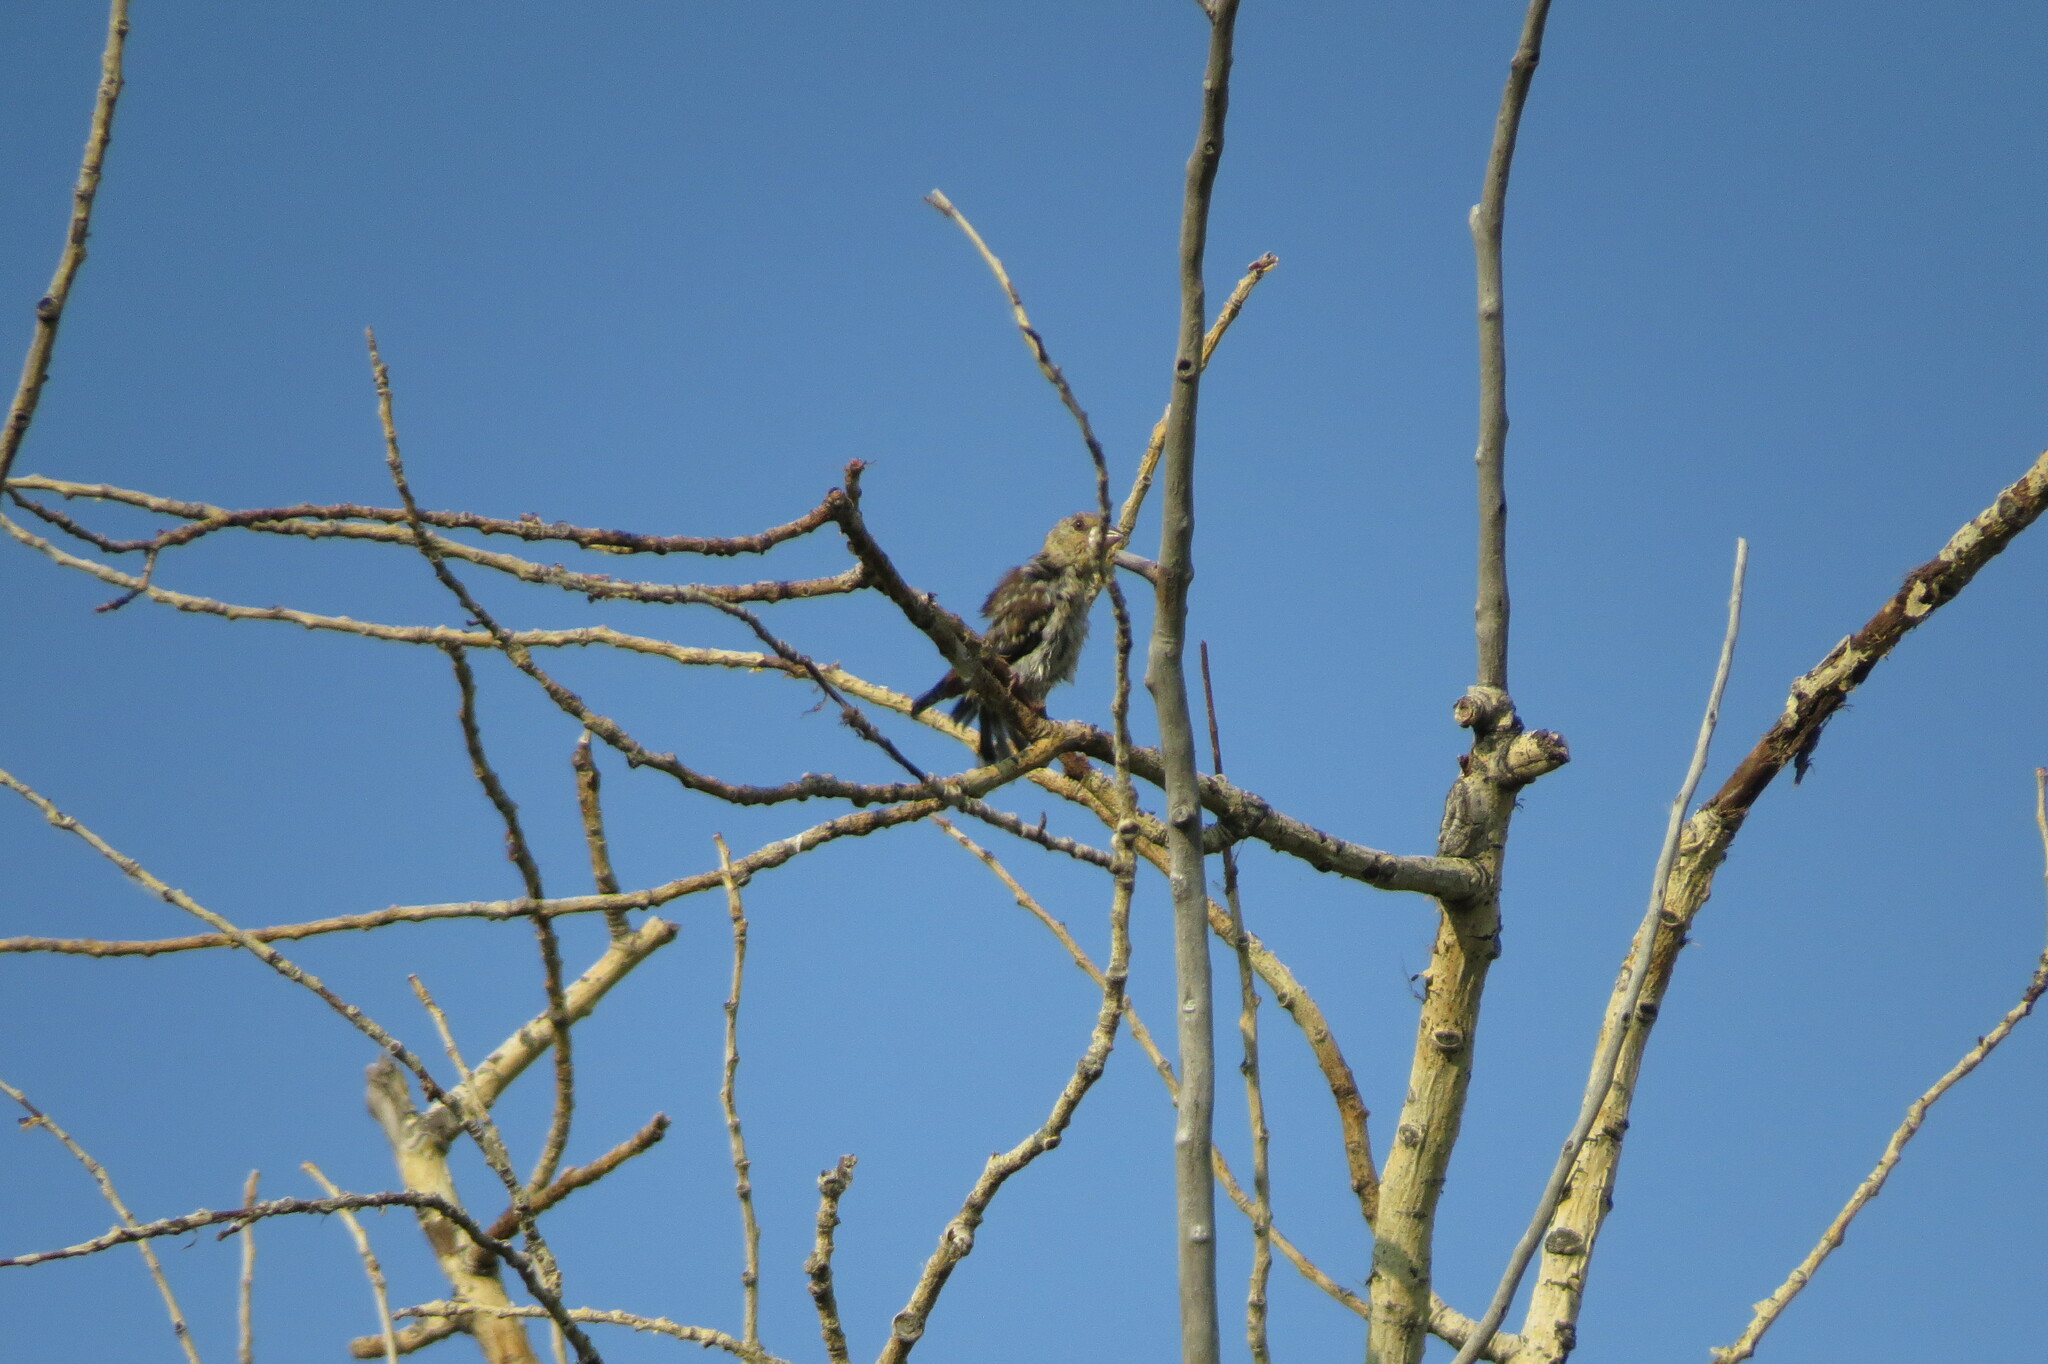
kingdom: Animalia
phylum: Chordata
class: Aves
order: Passeriformes
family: Fringillidae
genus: Coccothraustes
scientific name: Coccothraustes coccothraustes
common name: Hawfinch
